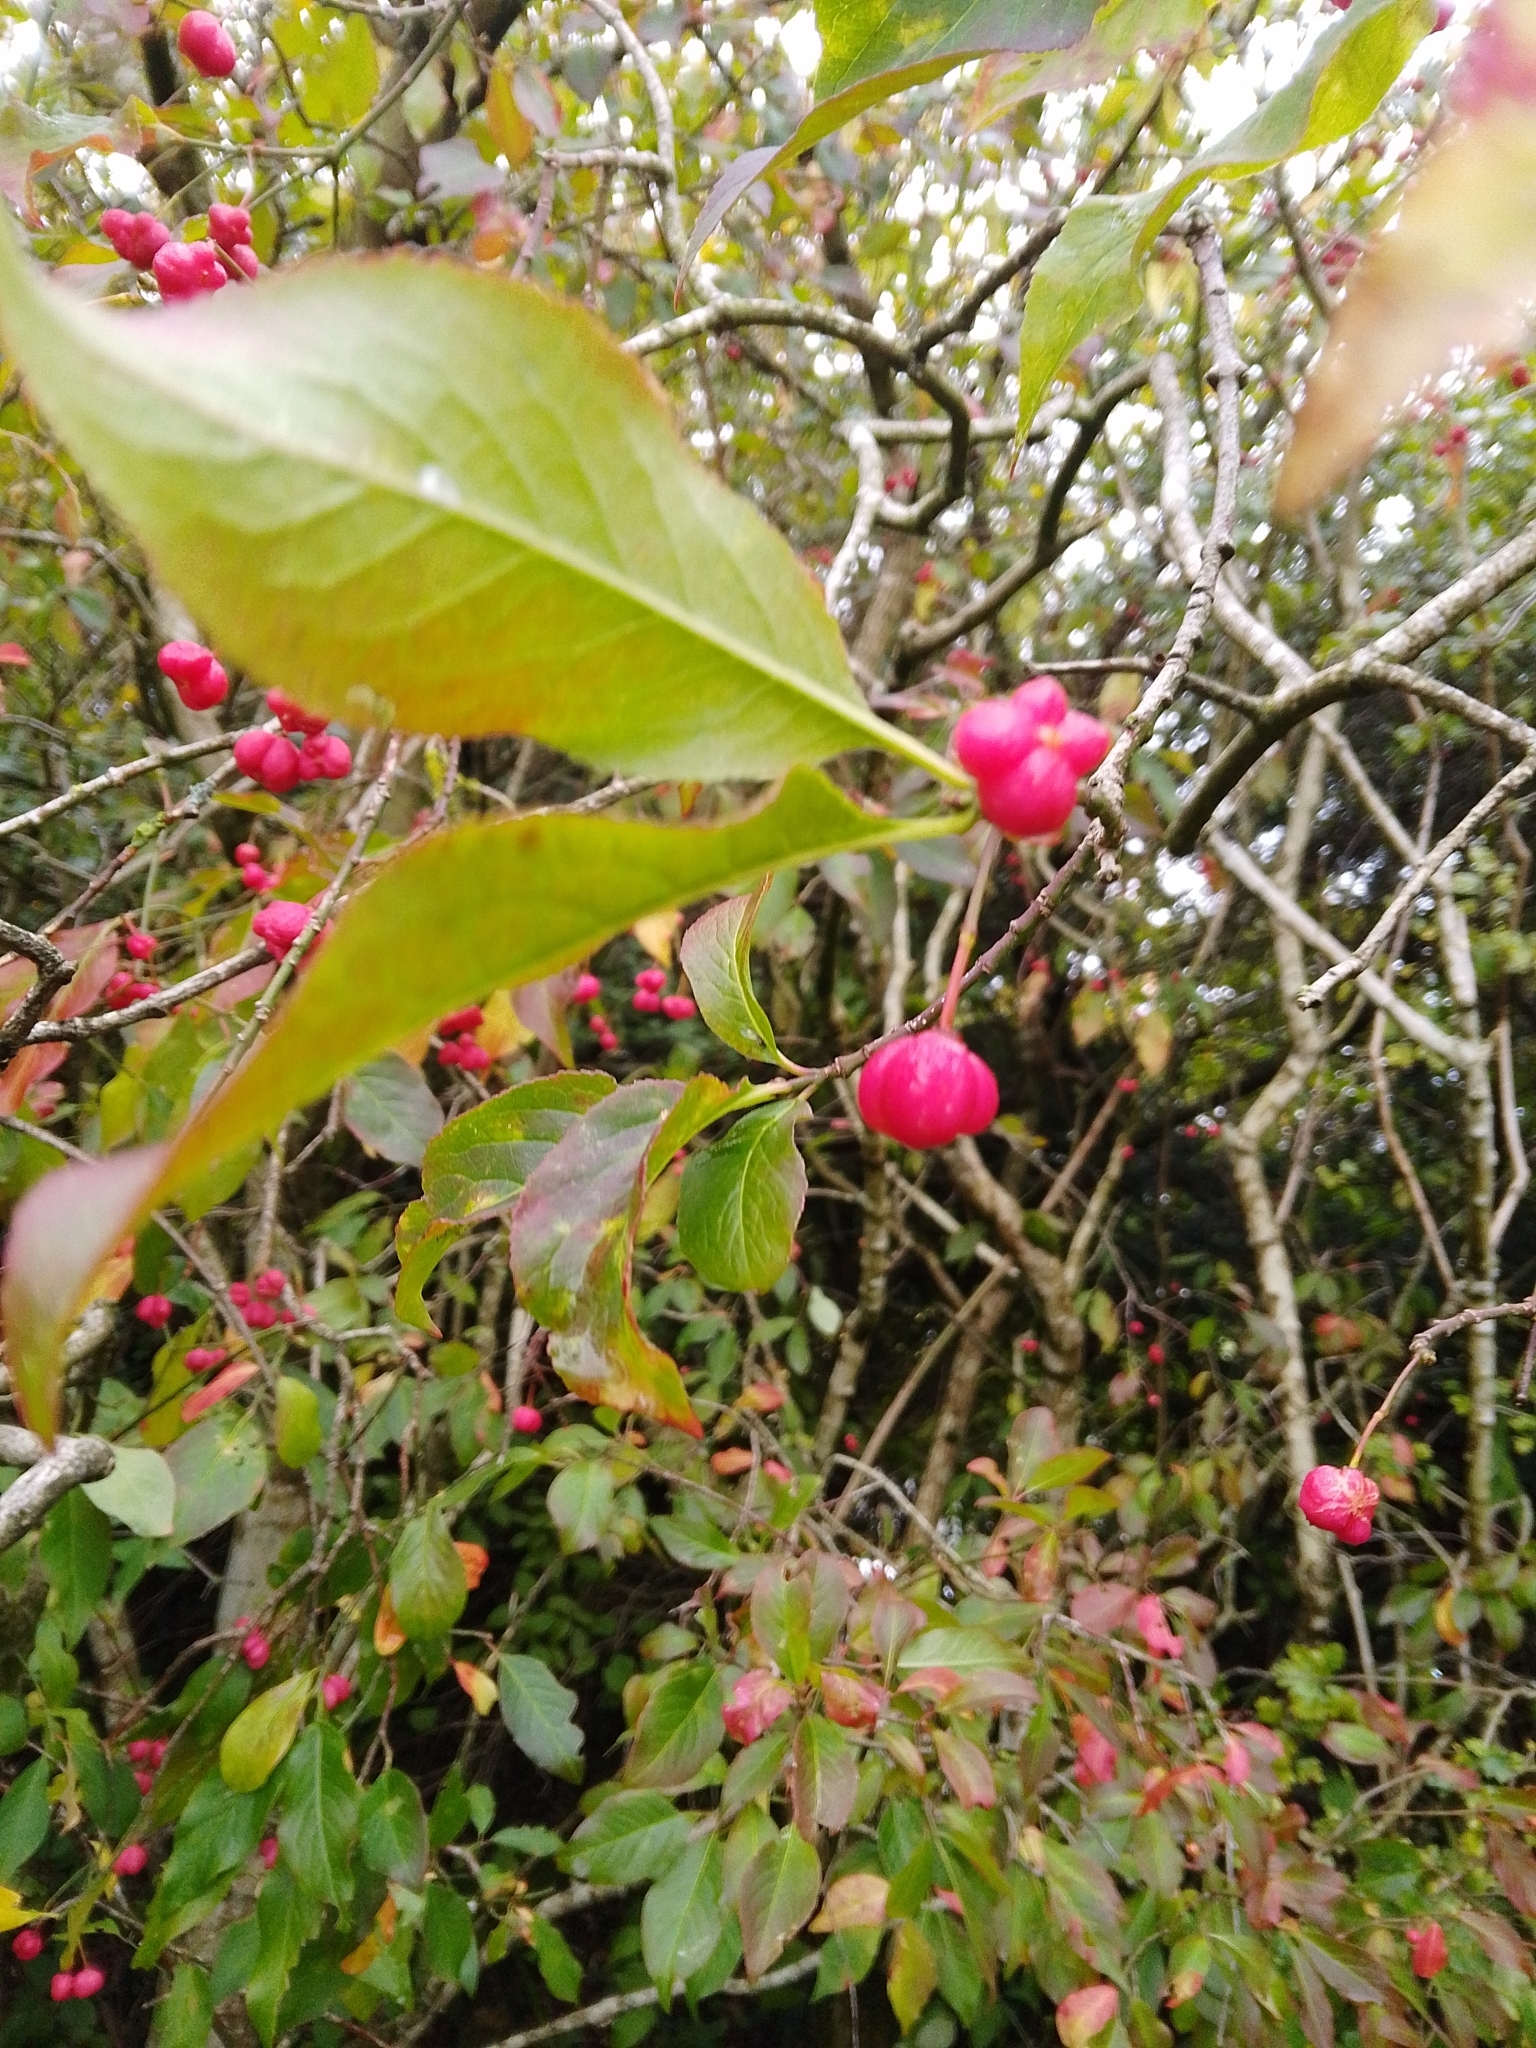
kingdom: Plantae
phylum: Tracheophyta
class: Magnoliopsida
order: Celastrales
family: Celastraceae
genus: Euonymus
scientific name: Euonymus europaeus
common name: Spindle
